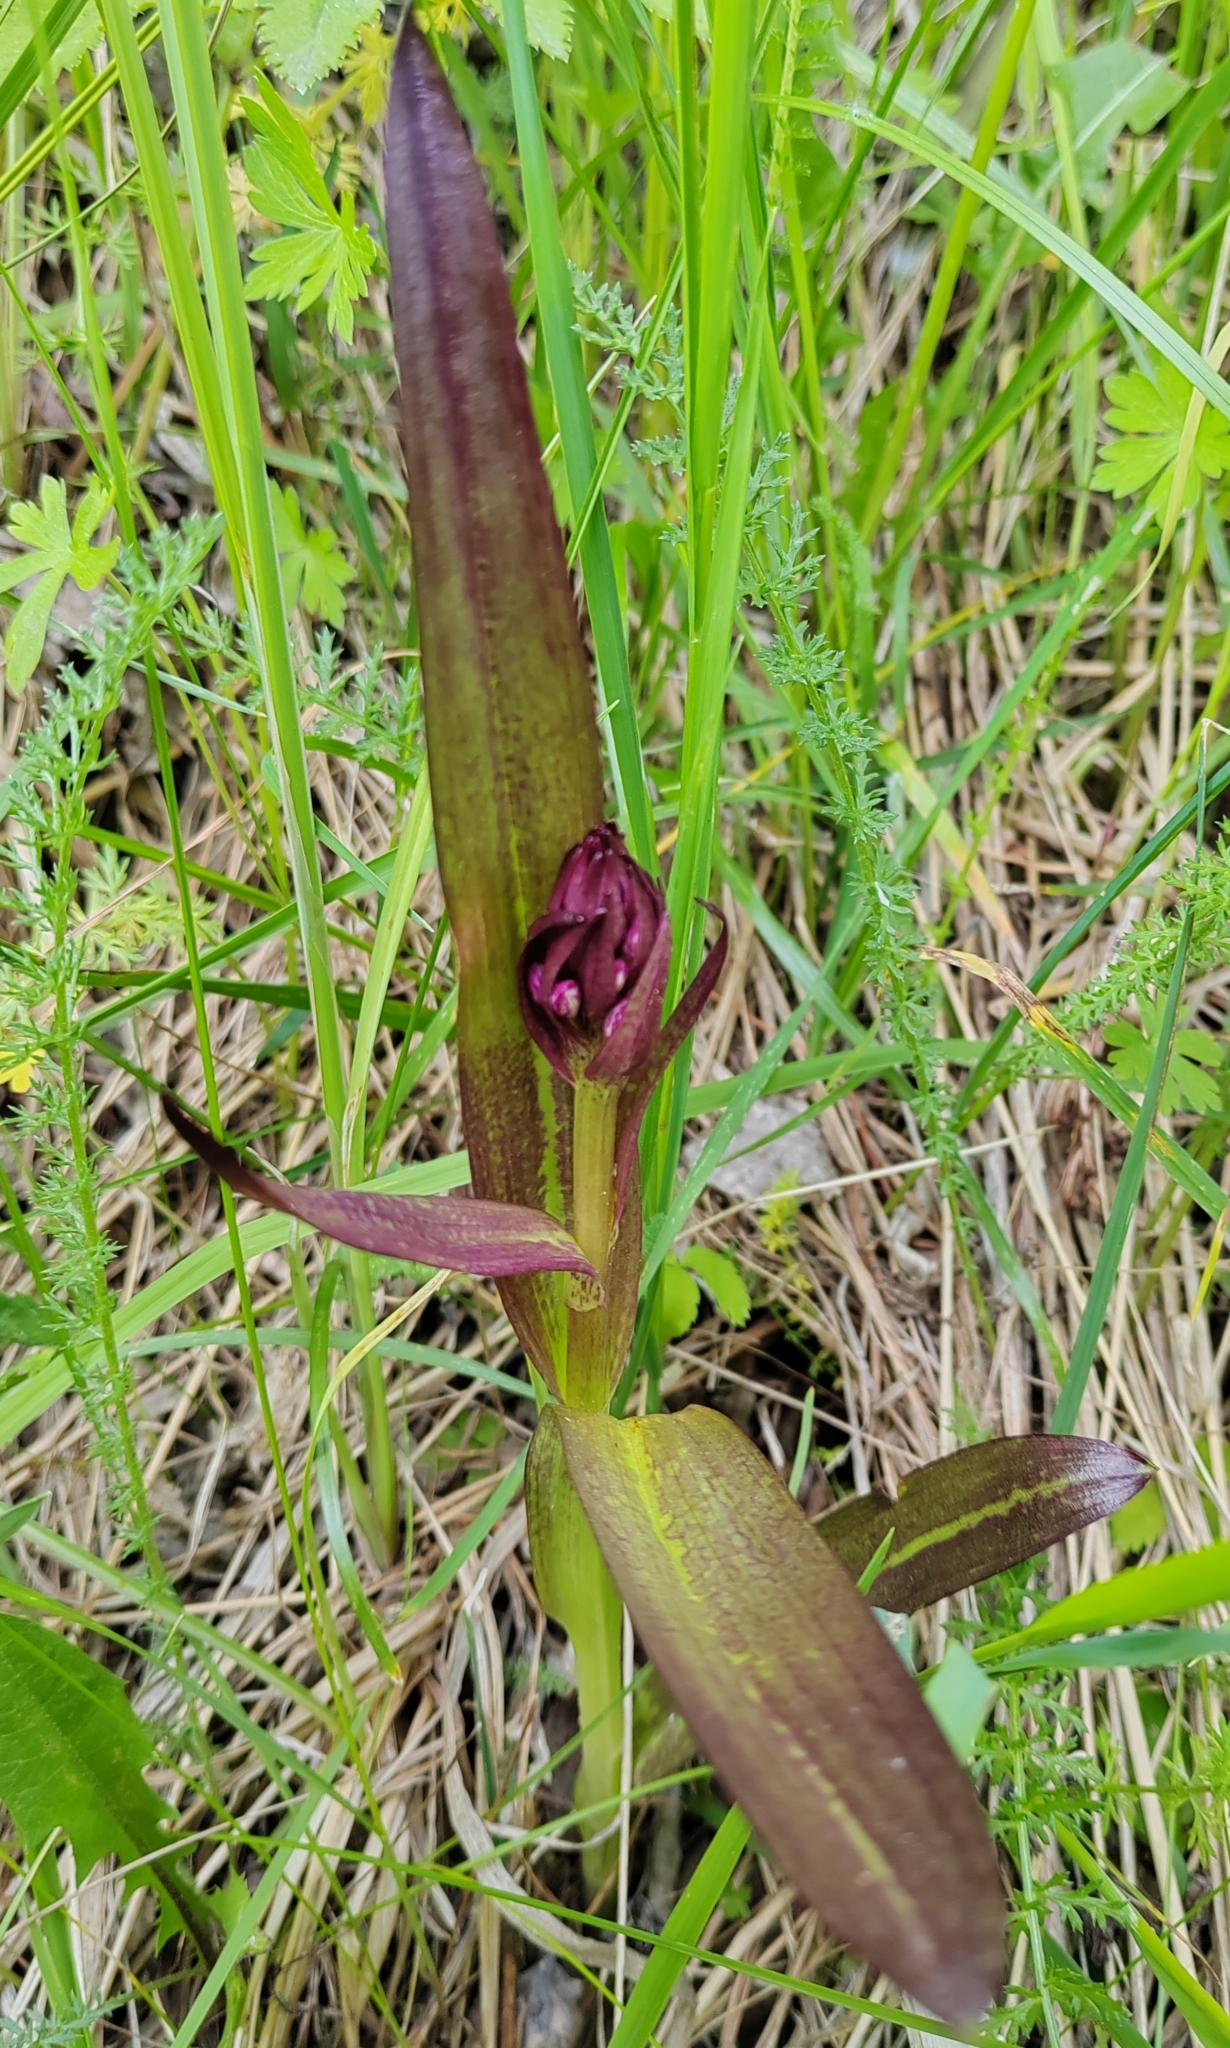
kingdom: Plantae
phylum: Tracheophyta
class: Liliopsida
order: Asparagales
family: Orchidaceae
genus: Dactylorhiza
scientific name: Dactylorhiza incarnata
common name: Early marsh-orchid
